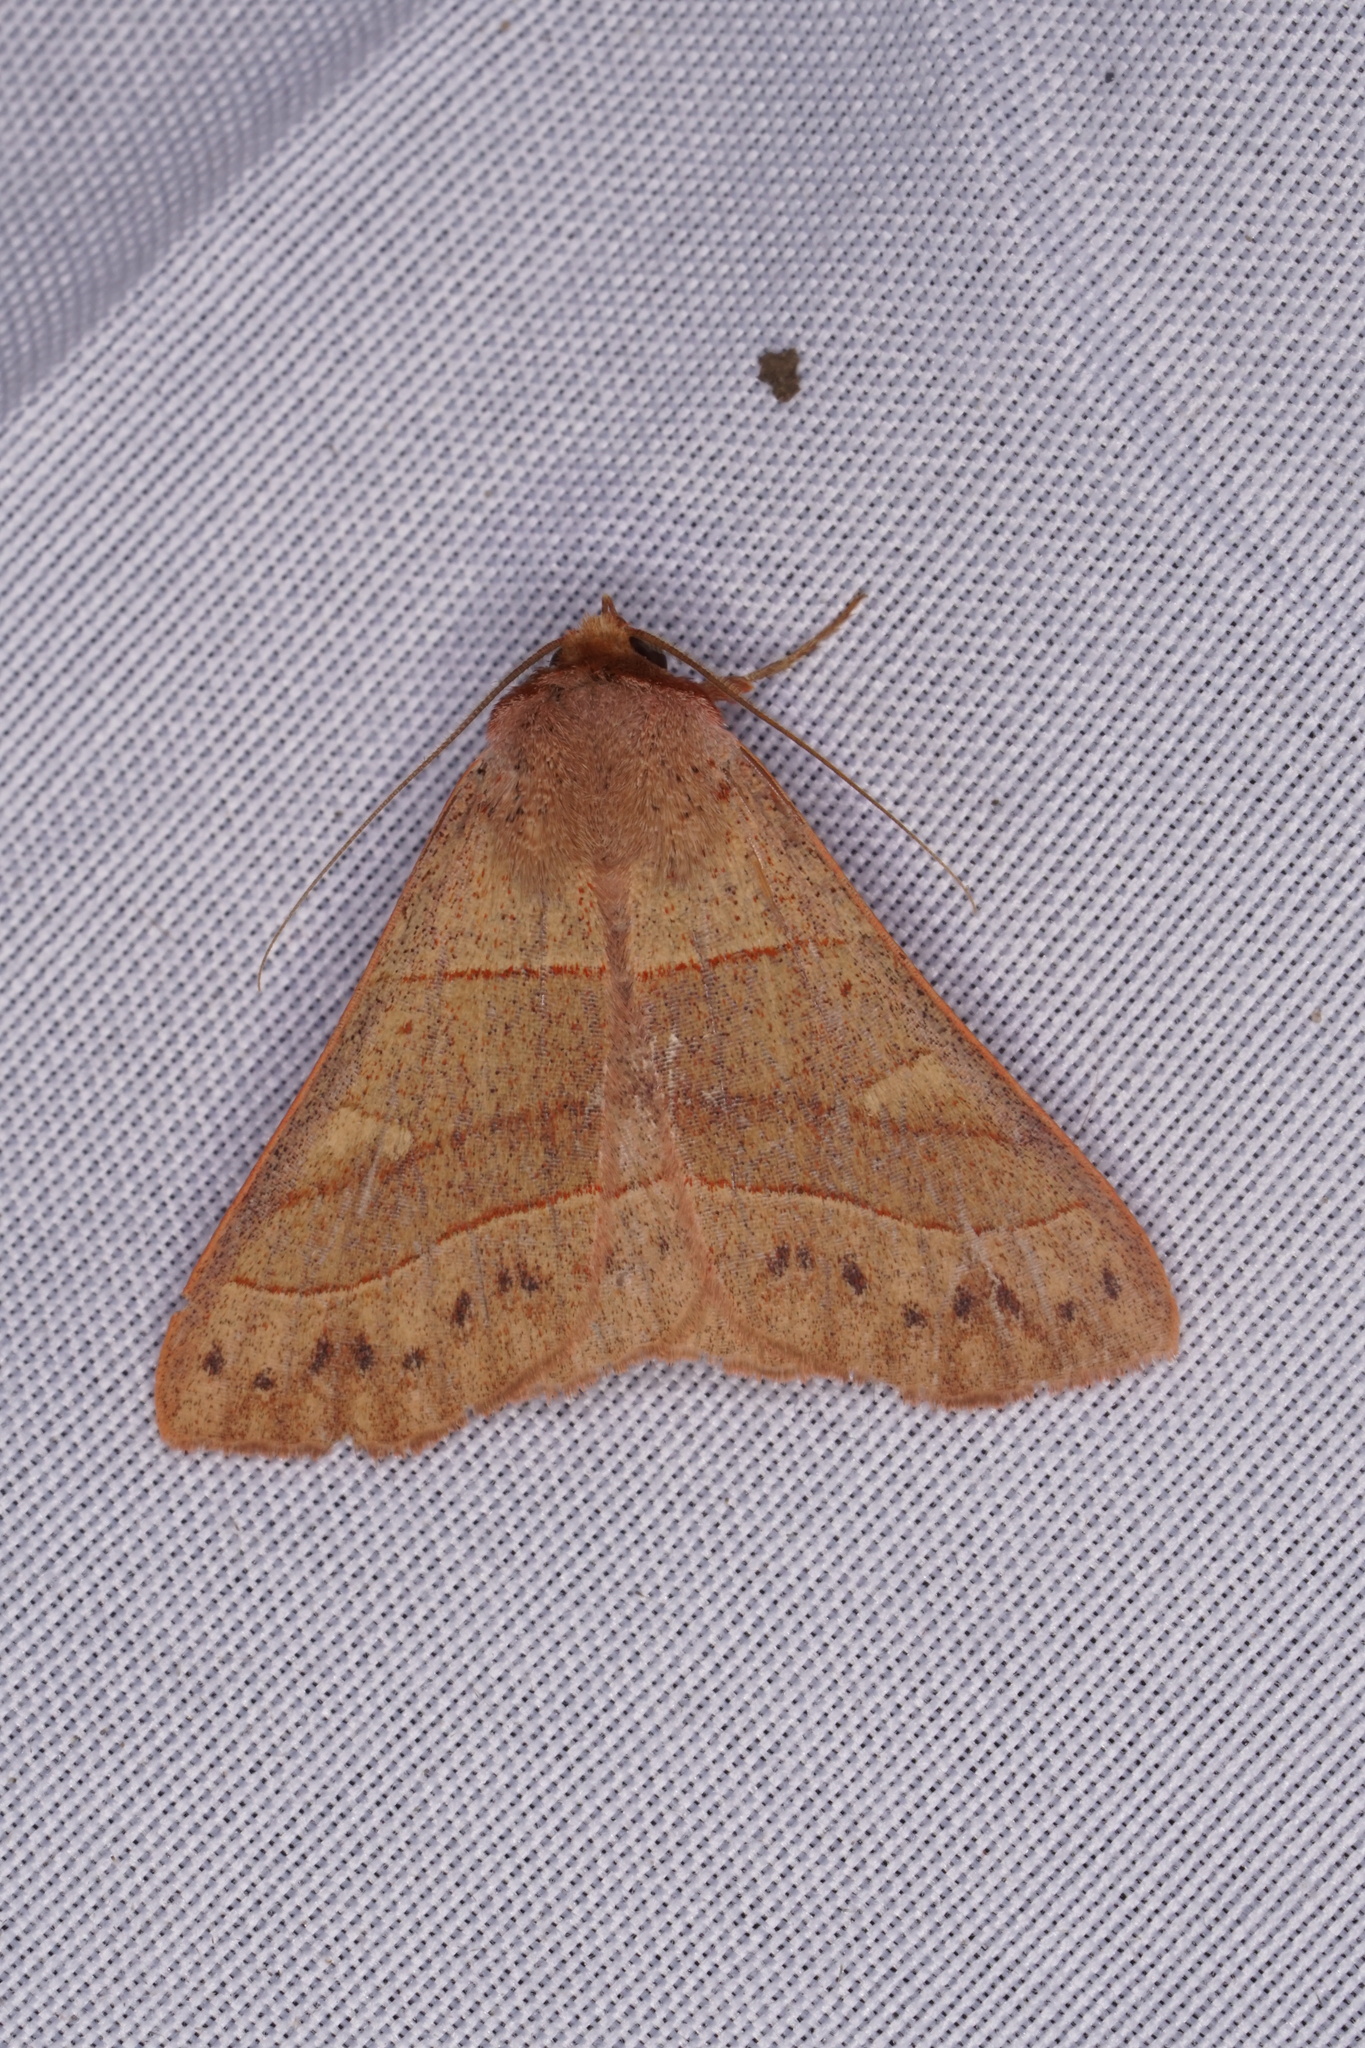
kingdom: Animalia
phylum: Arthropoda
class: Insecta
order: Lepidoptera
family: Erebidae
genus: Panopoda
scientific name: Panopoda rufimargo
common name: Red-lined panopoda moth
